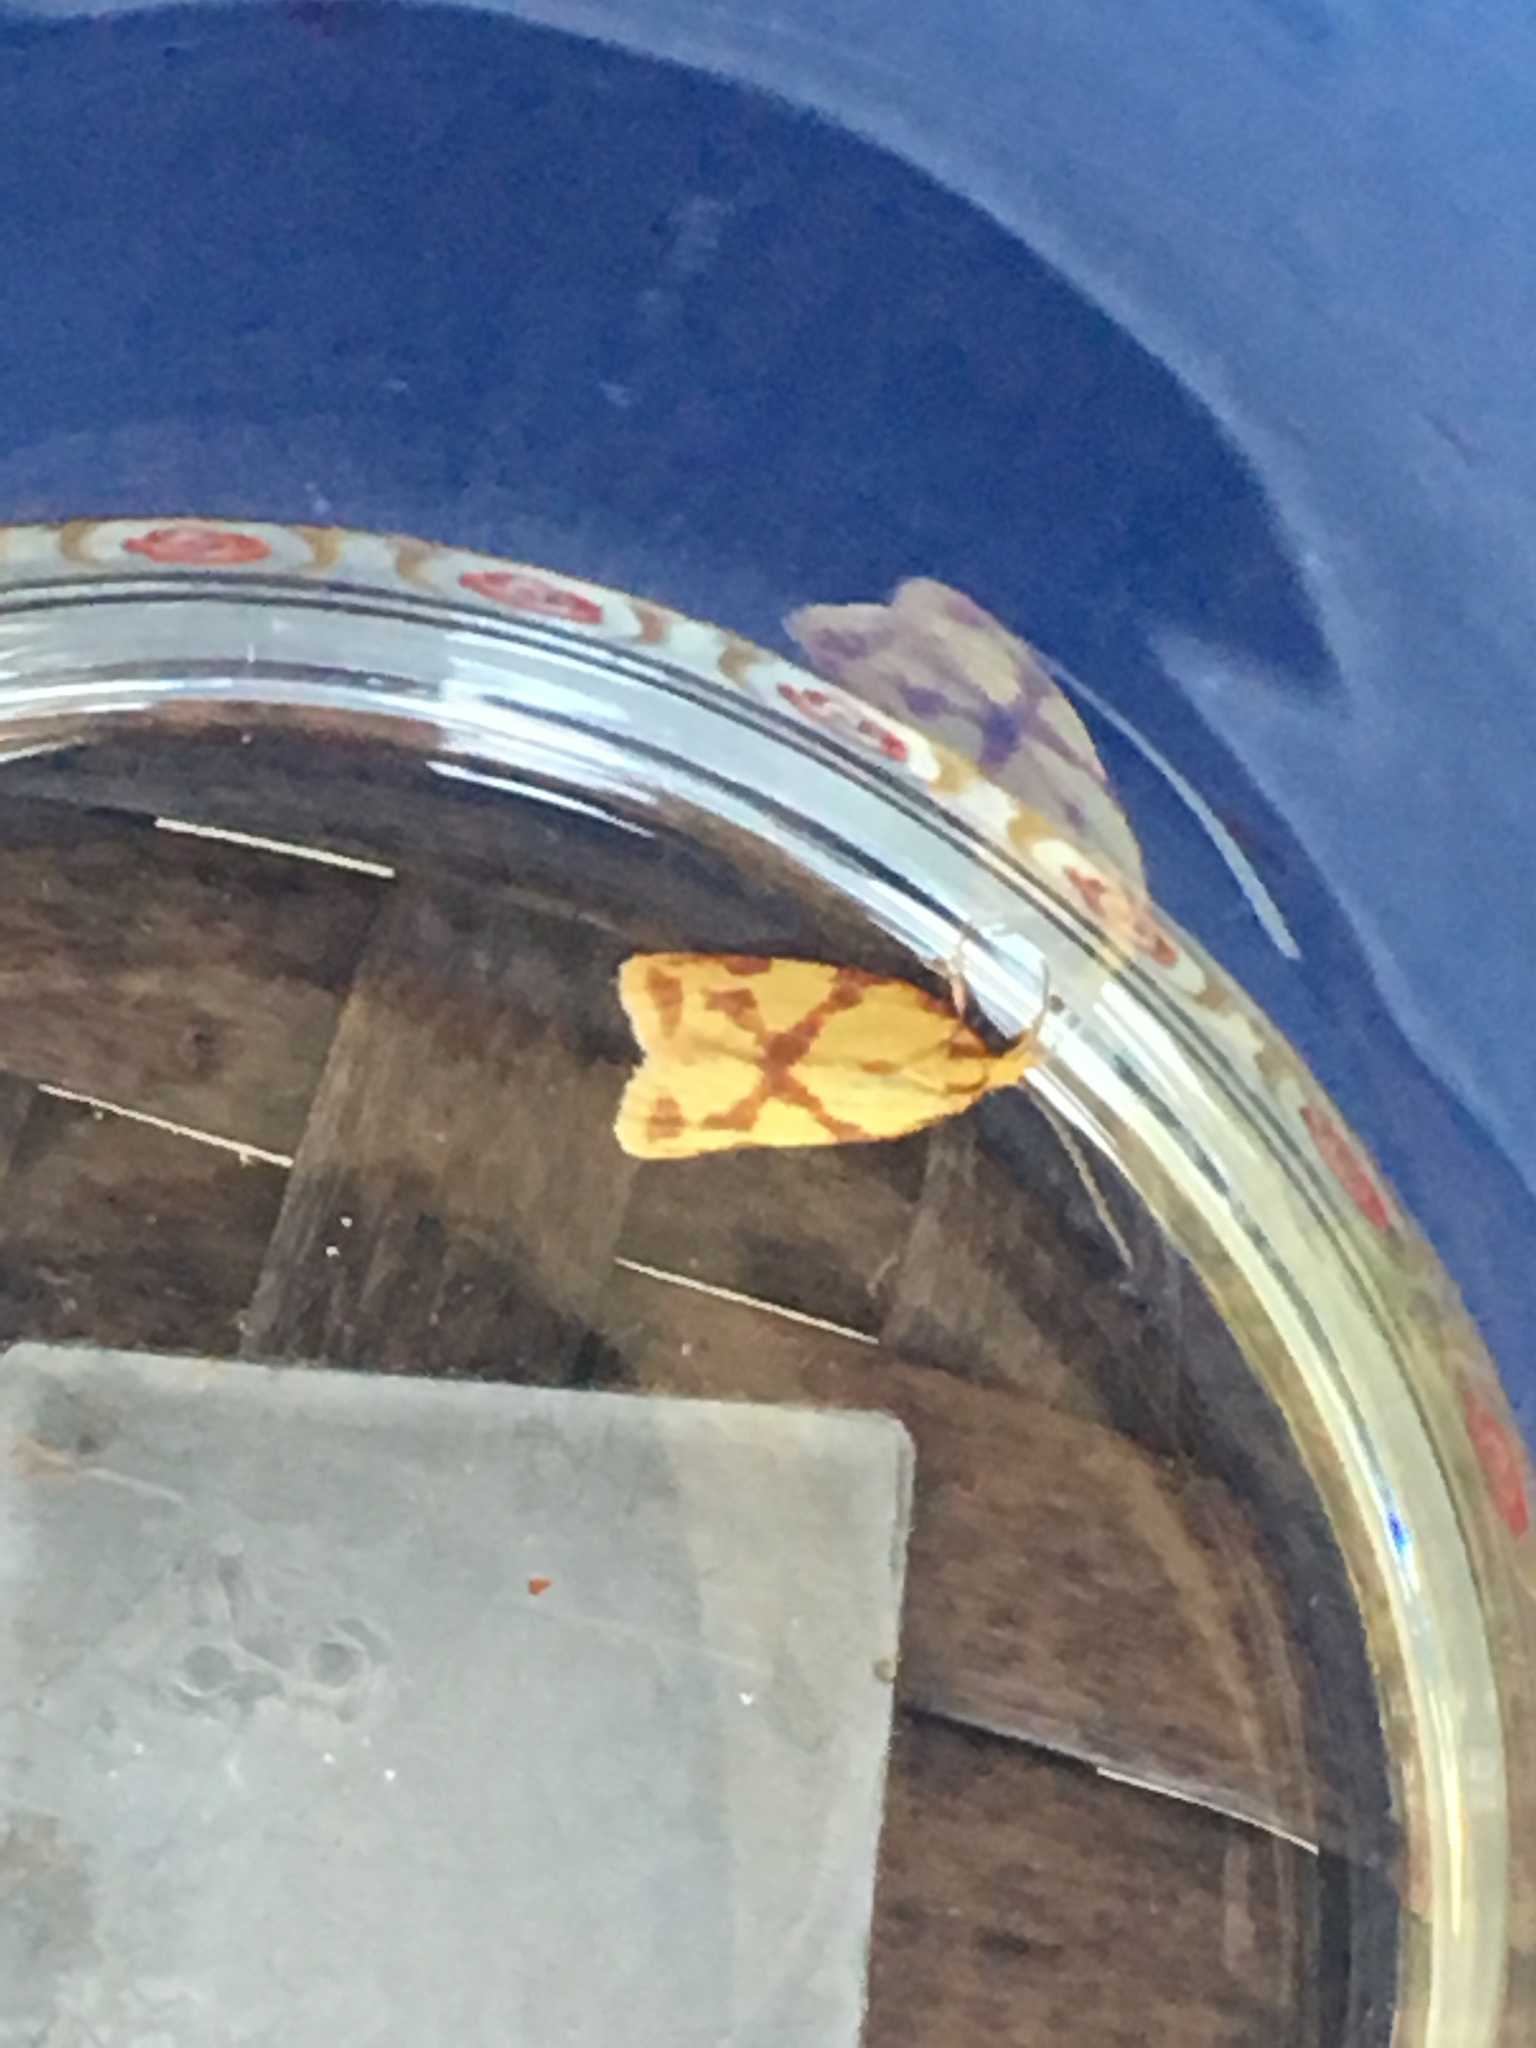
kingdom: Animalia
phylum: Arthropoda
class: Insecta
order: Lepidoptera
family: Tortricidae
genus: Sparganothis
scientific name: Sparganothis unifasciana
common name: One-lined sparganothis moth
